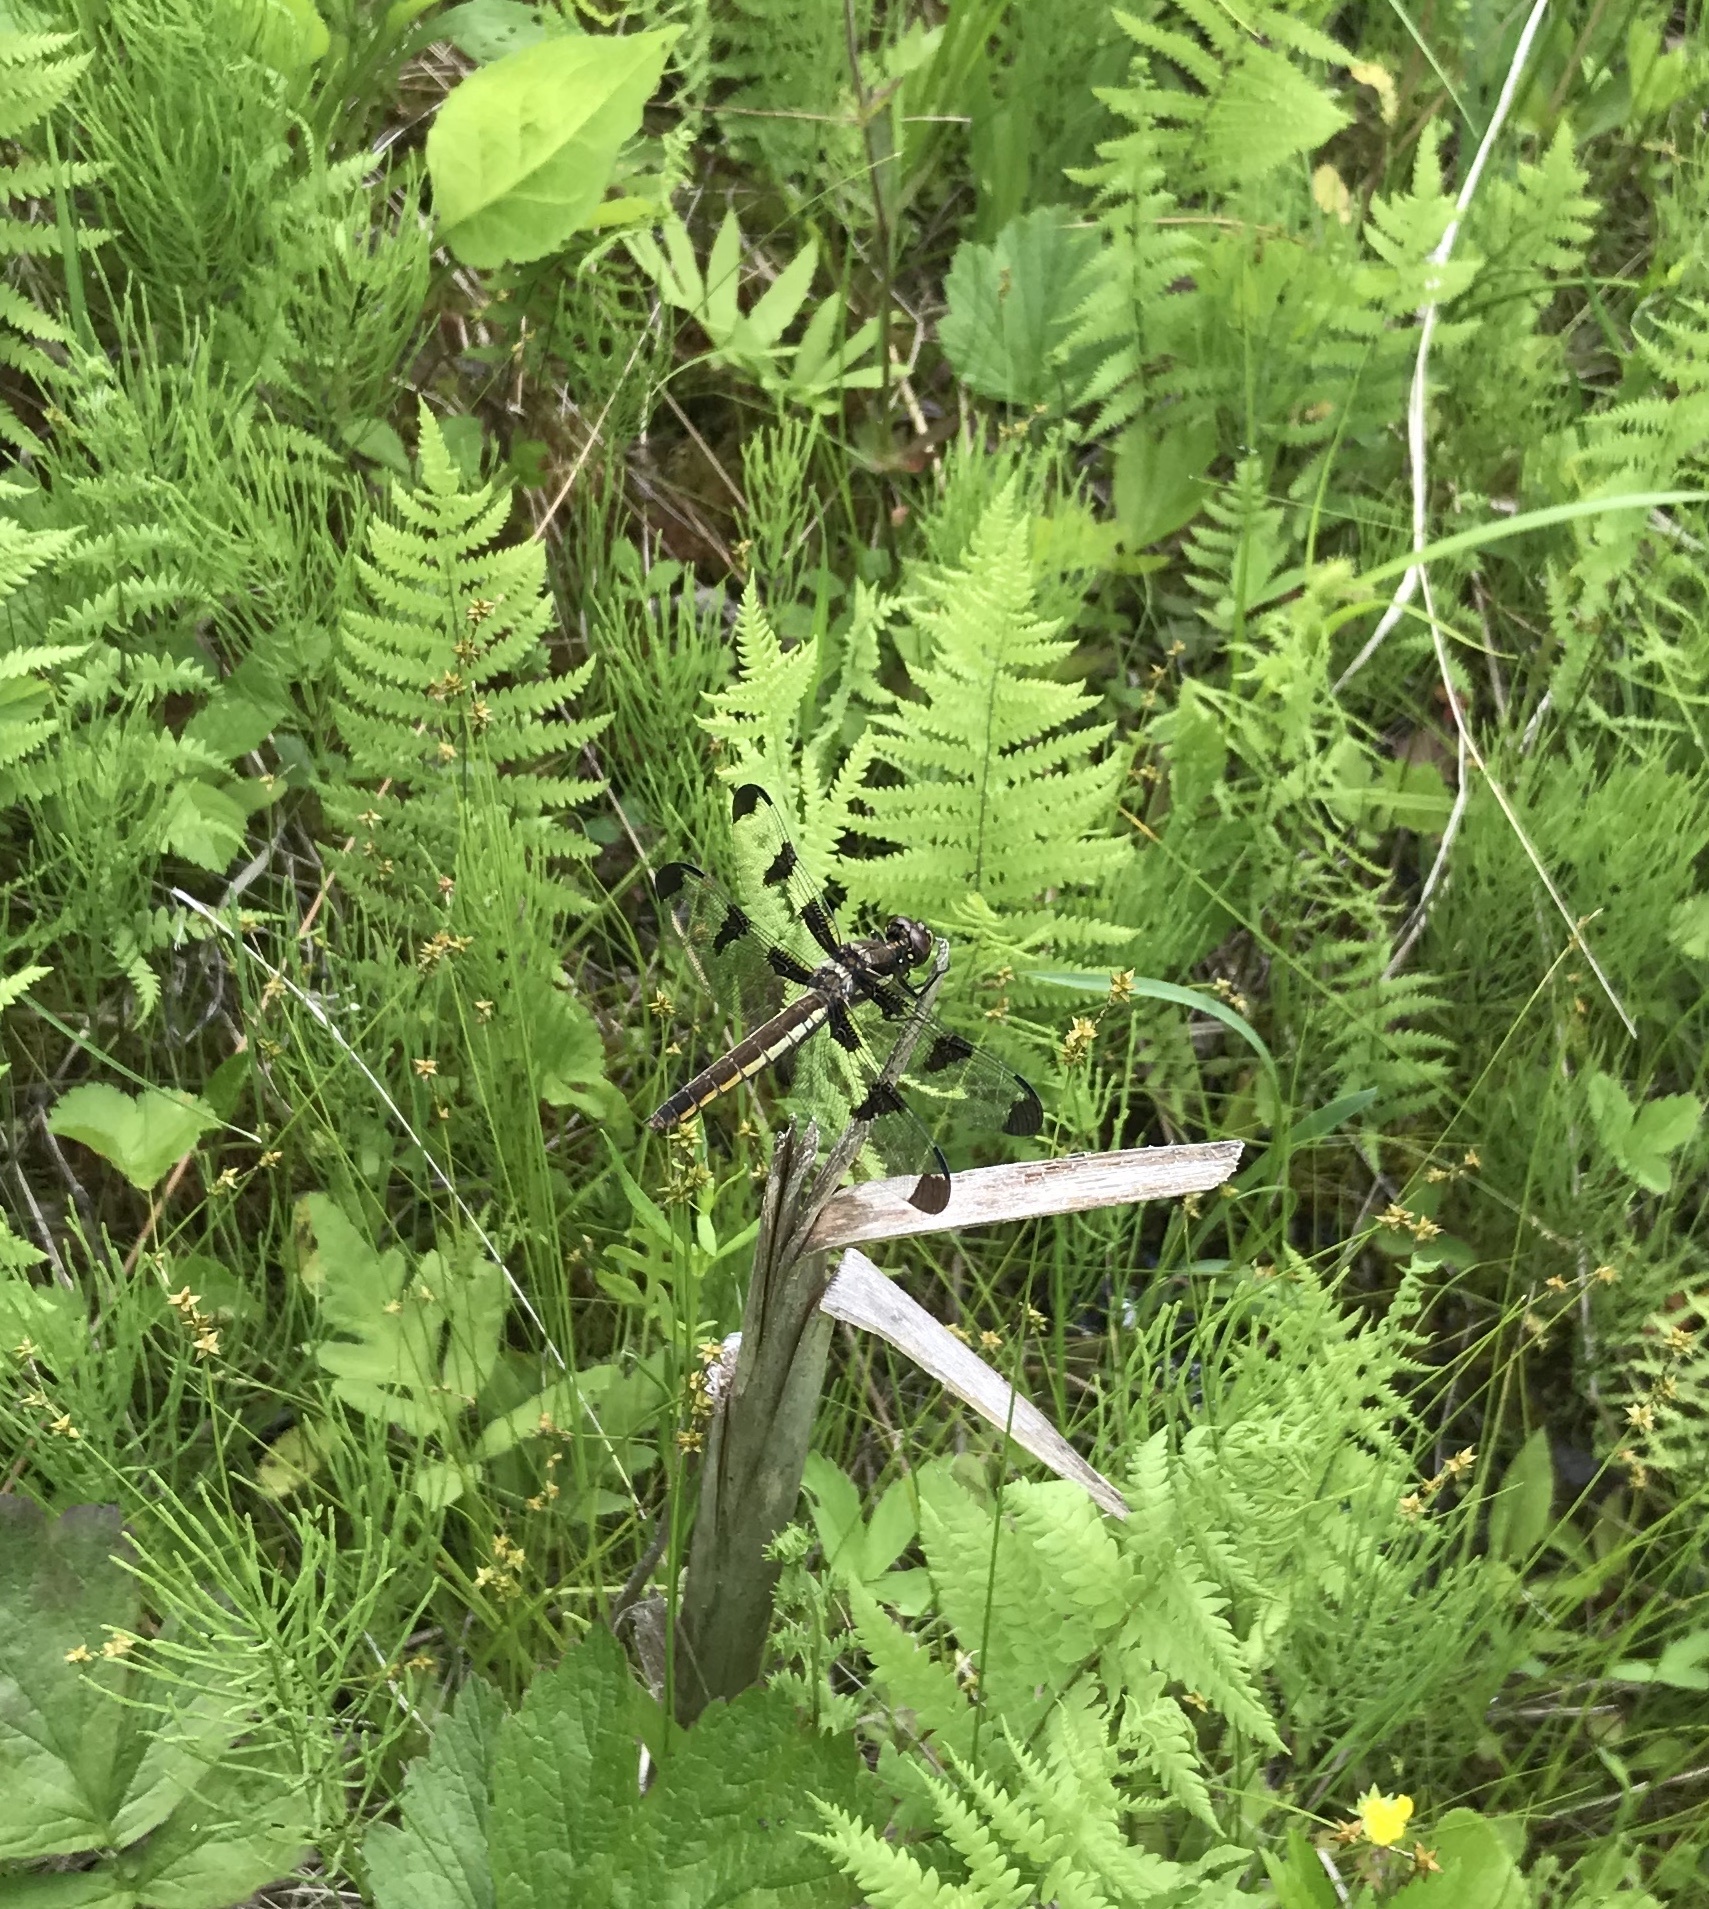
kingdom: Animalia
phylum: Arthropoda
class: Insecta
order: Odonata
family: Libellulidae
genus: Libellula
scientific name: Libellula pulchella
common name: Twelve-spotted skimmer
